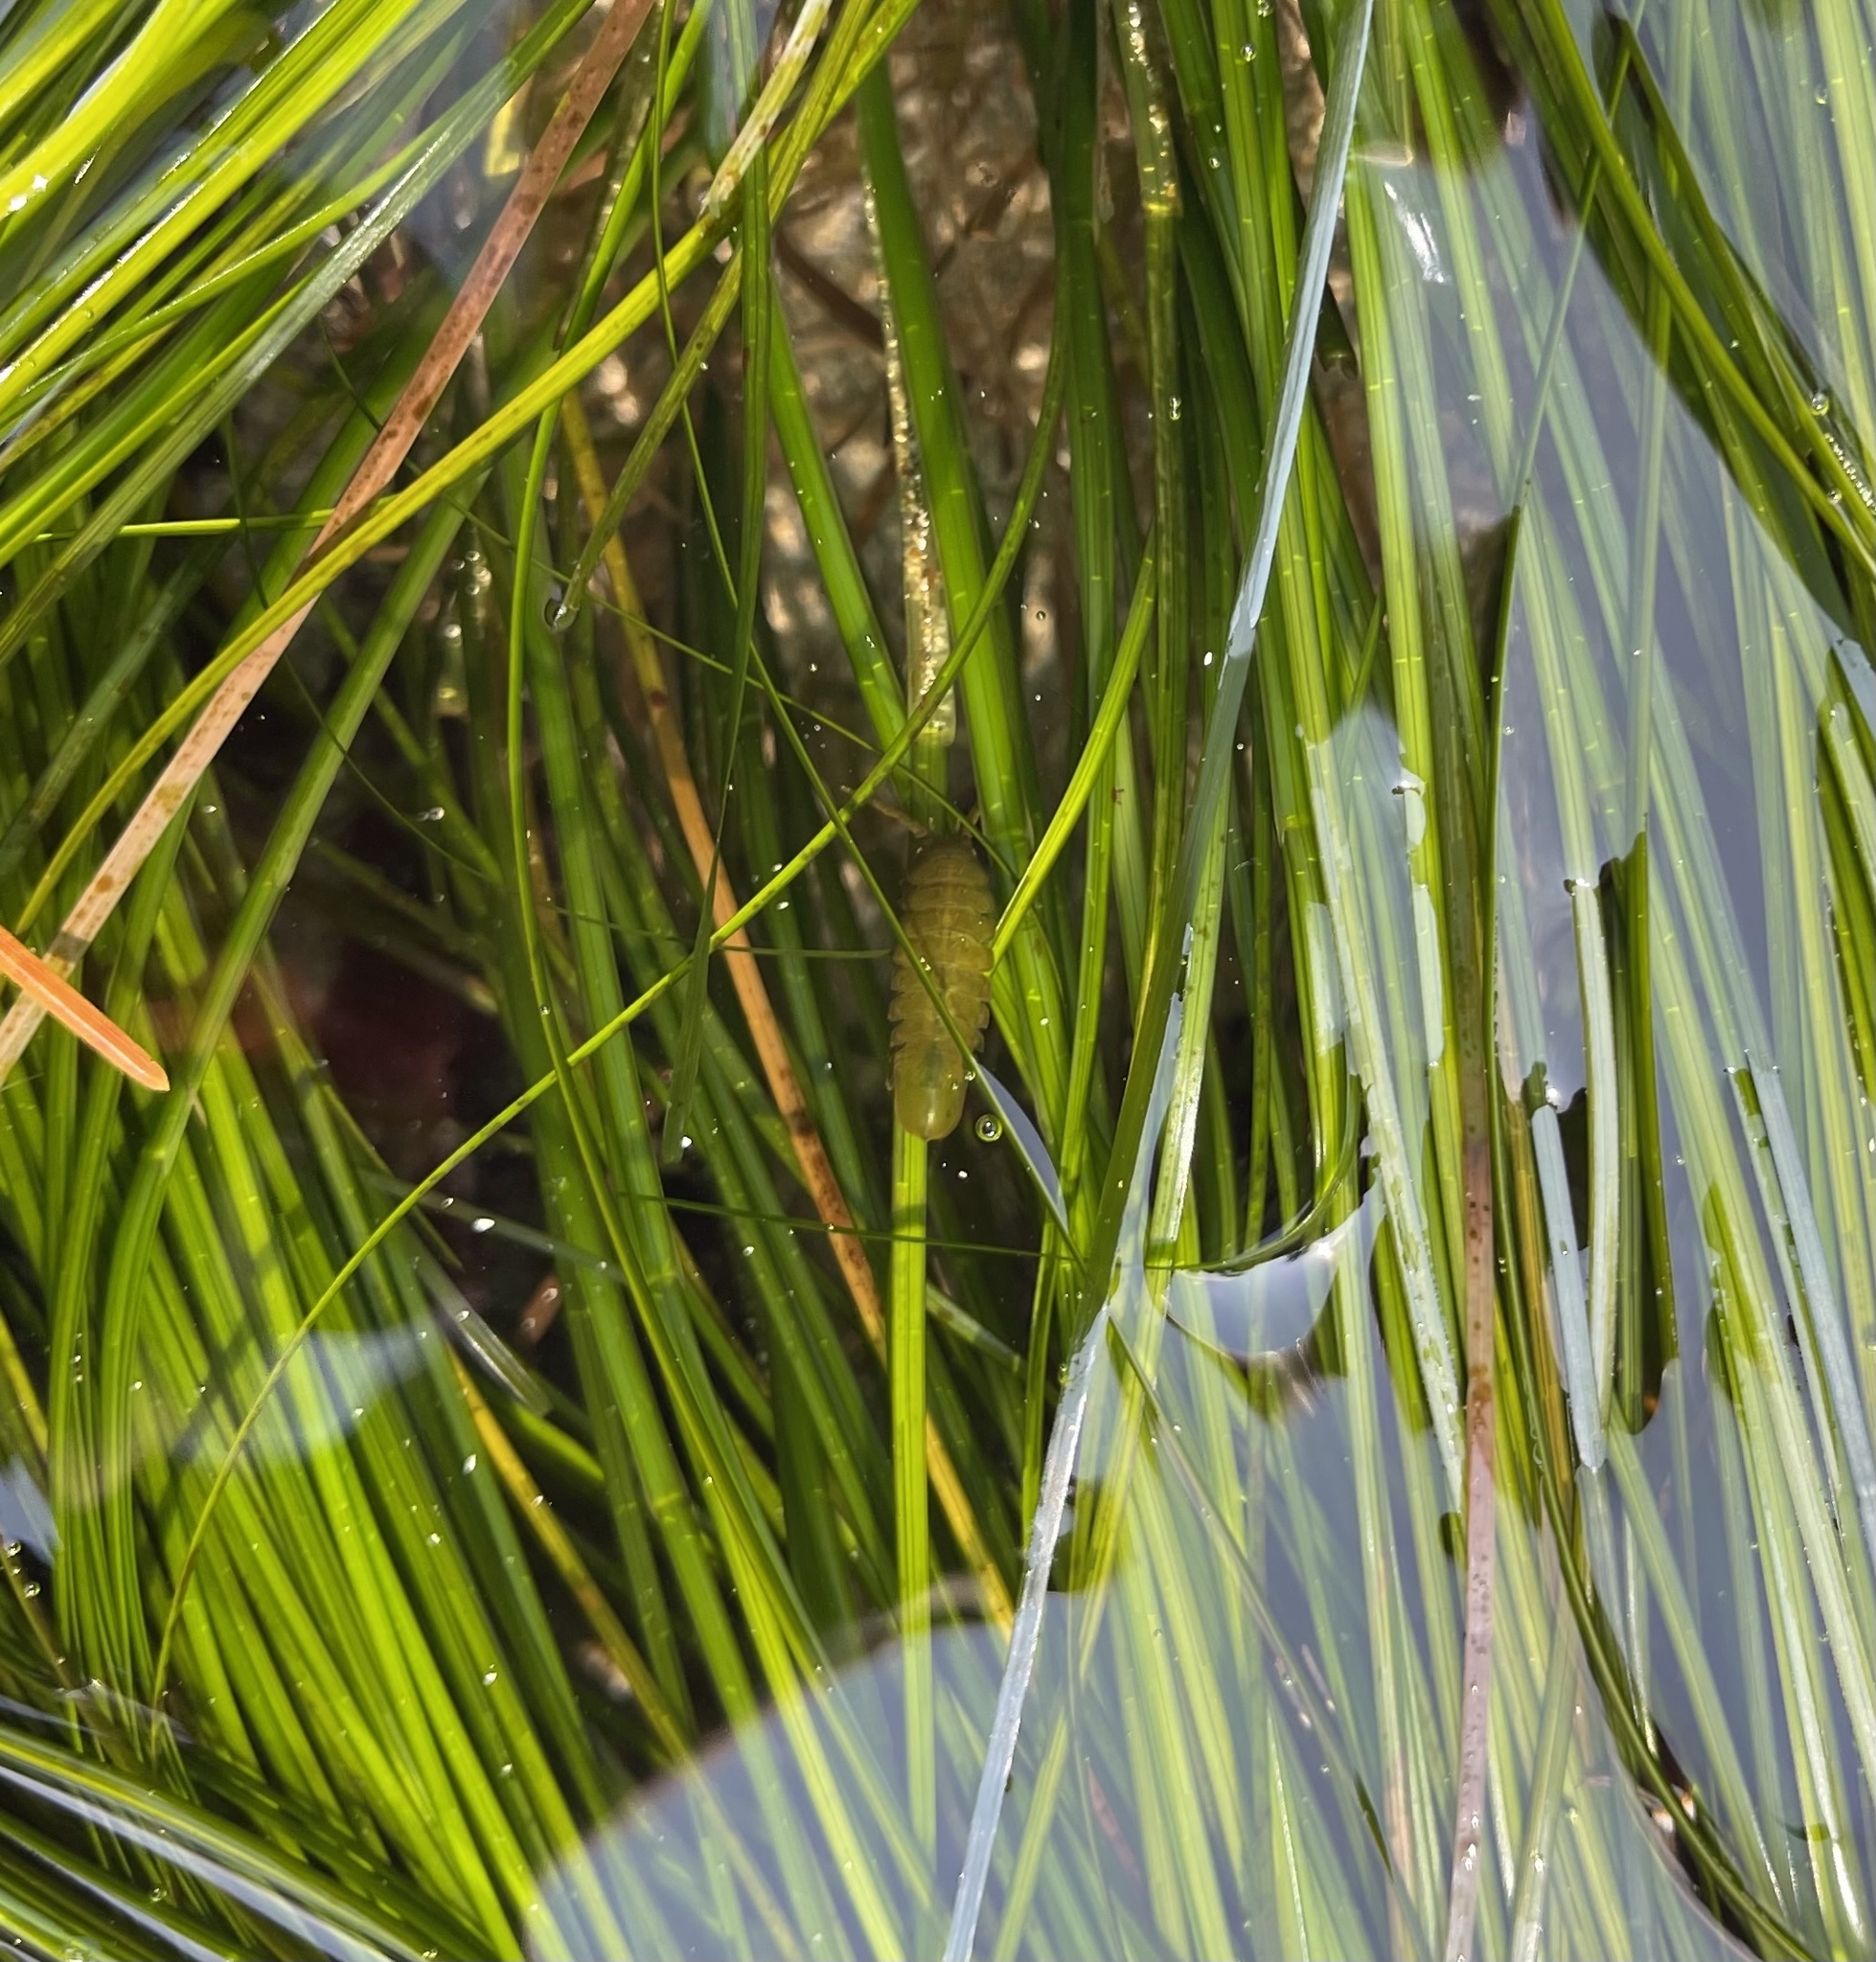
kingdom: Animalia
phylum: Arthropoda
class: Malacostraca
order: Isopoda
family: Idoteidae
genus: Pentidotea
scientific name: Pentidotea wosnesenskii
